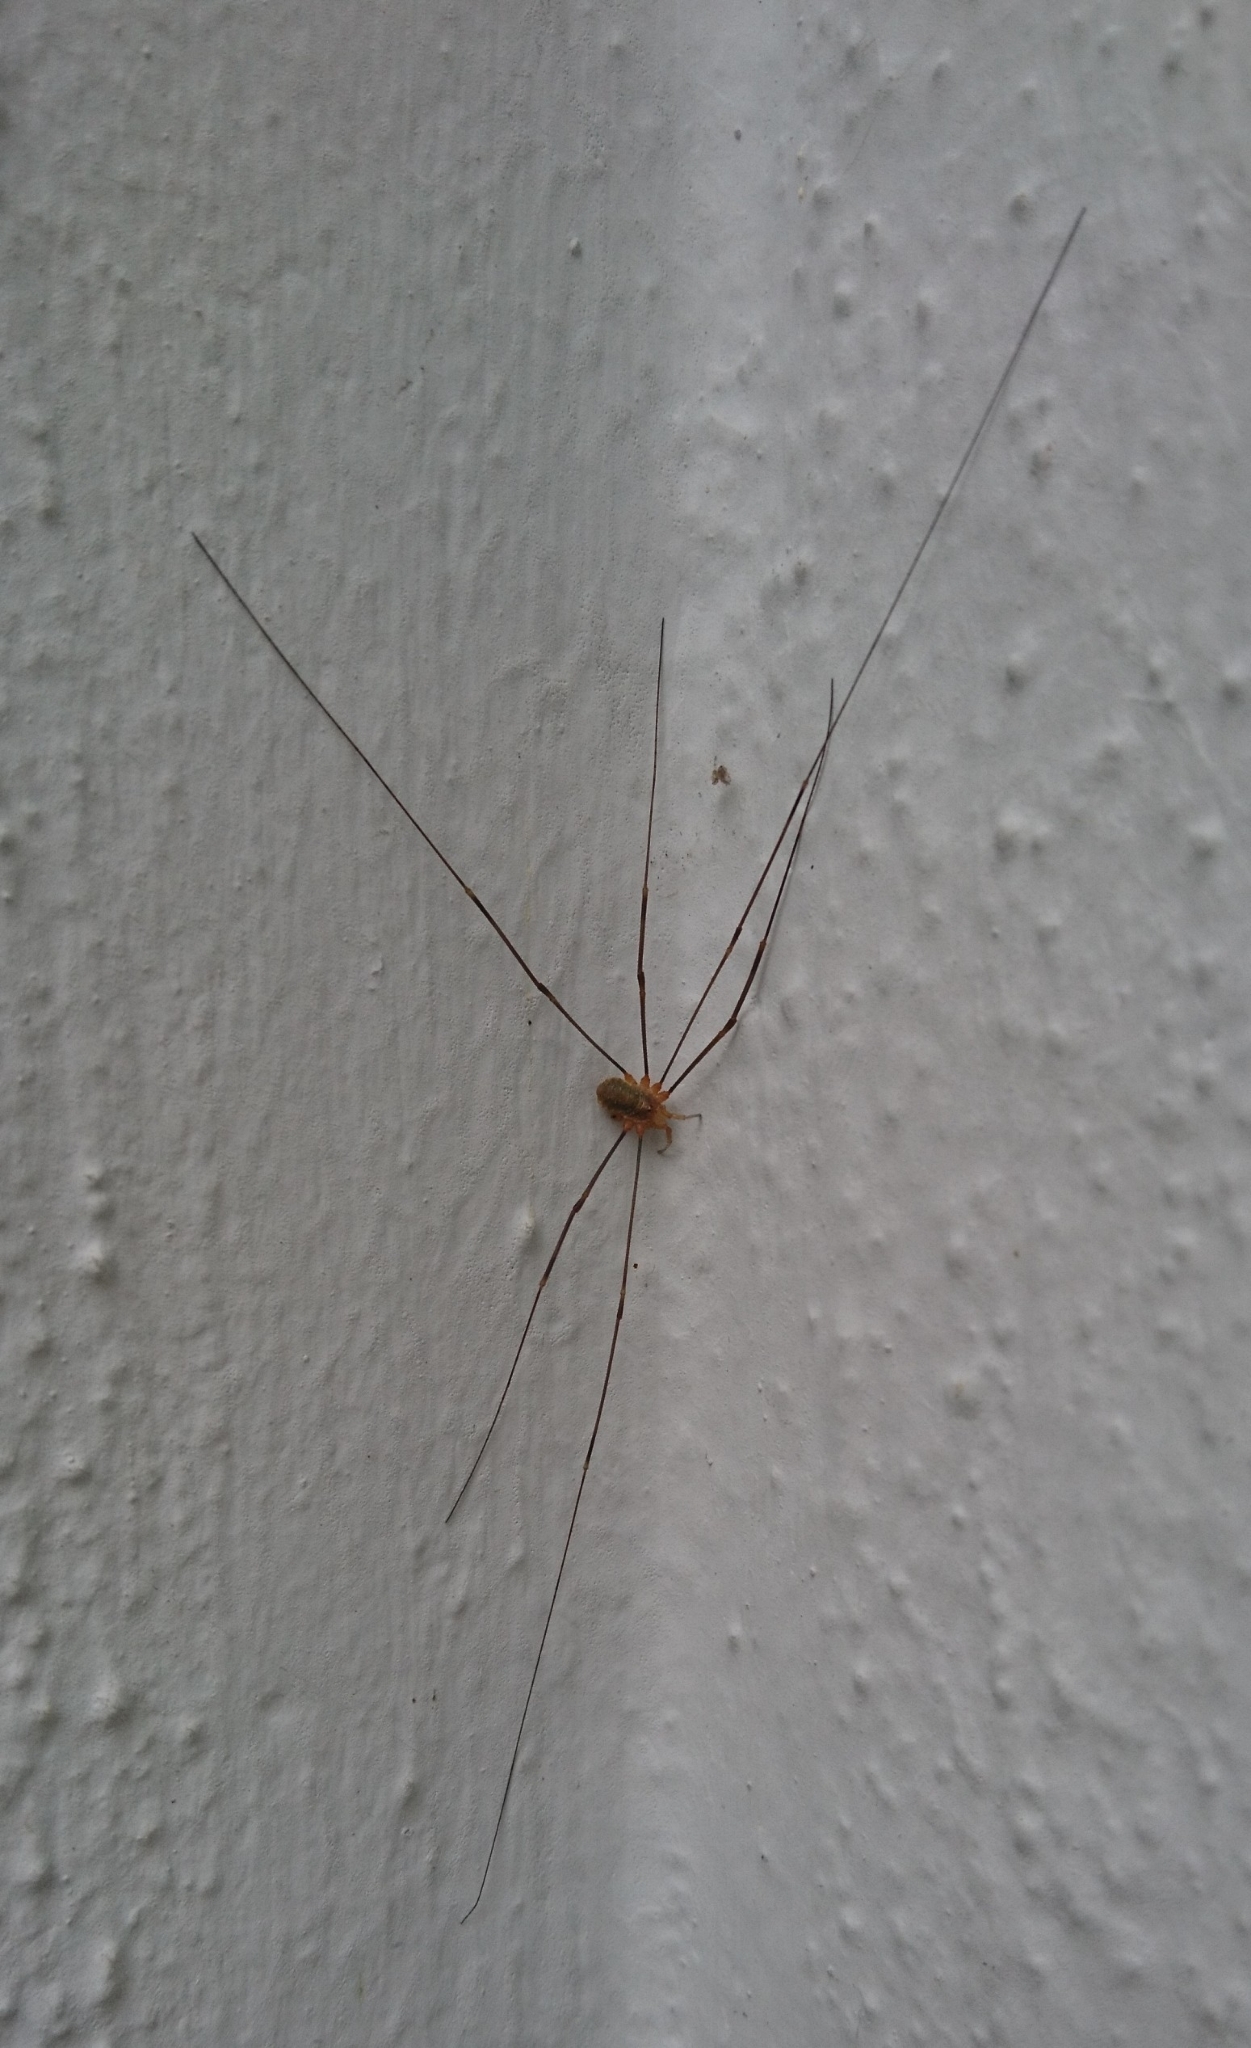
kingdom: Animalia
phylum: Arthropoda
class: Arachnida
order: Opiliones
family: Phalangiidae
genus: Opilio
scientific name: Opilio canestrinii
